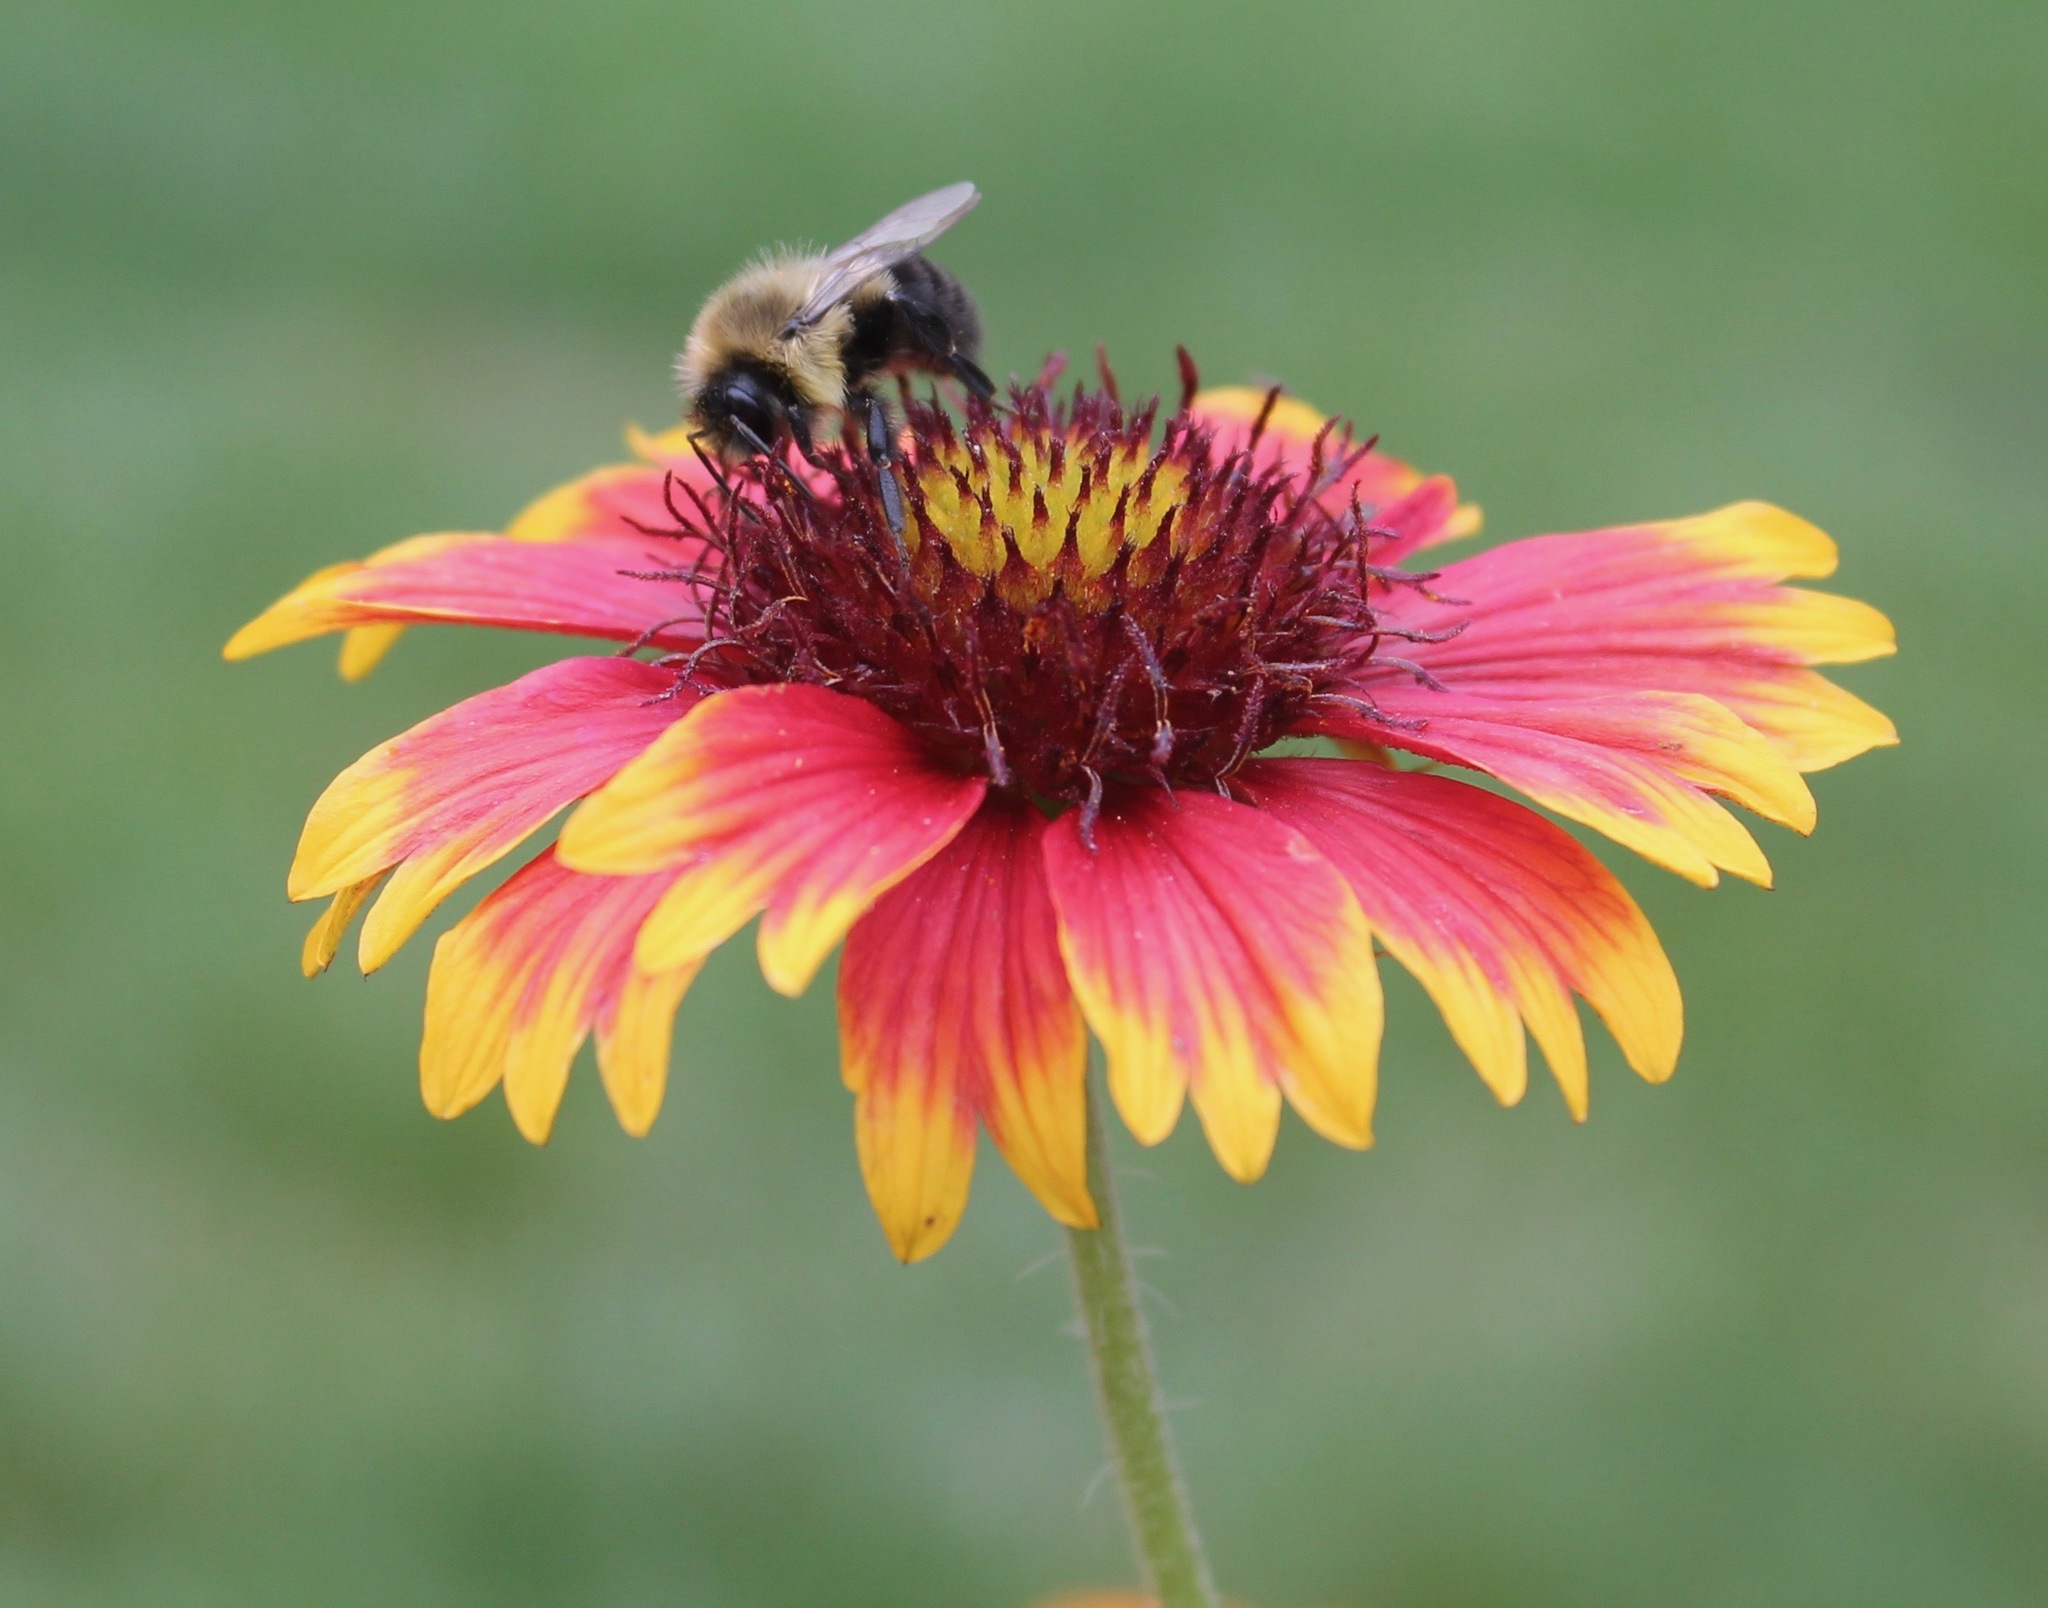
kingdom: Animalia
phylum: Arthropoda
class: Insecta
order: Hymenoptera
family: Apidae
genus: Bombus
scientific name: Bombus impatiens
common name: Common eastern bumble bee
